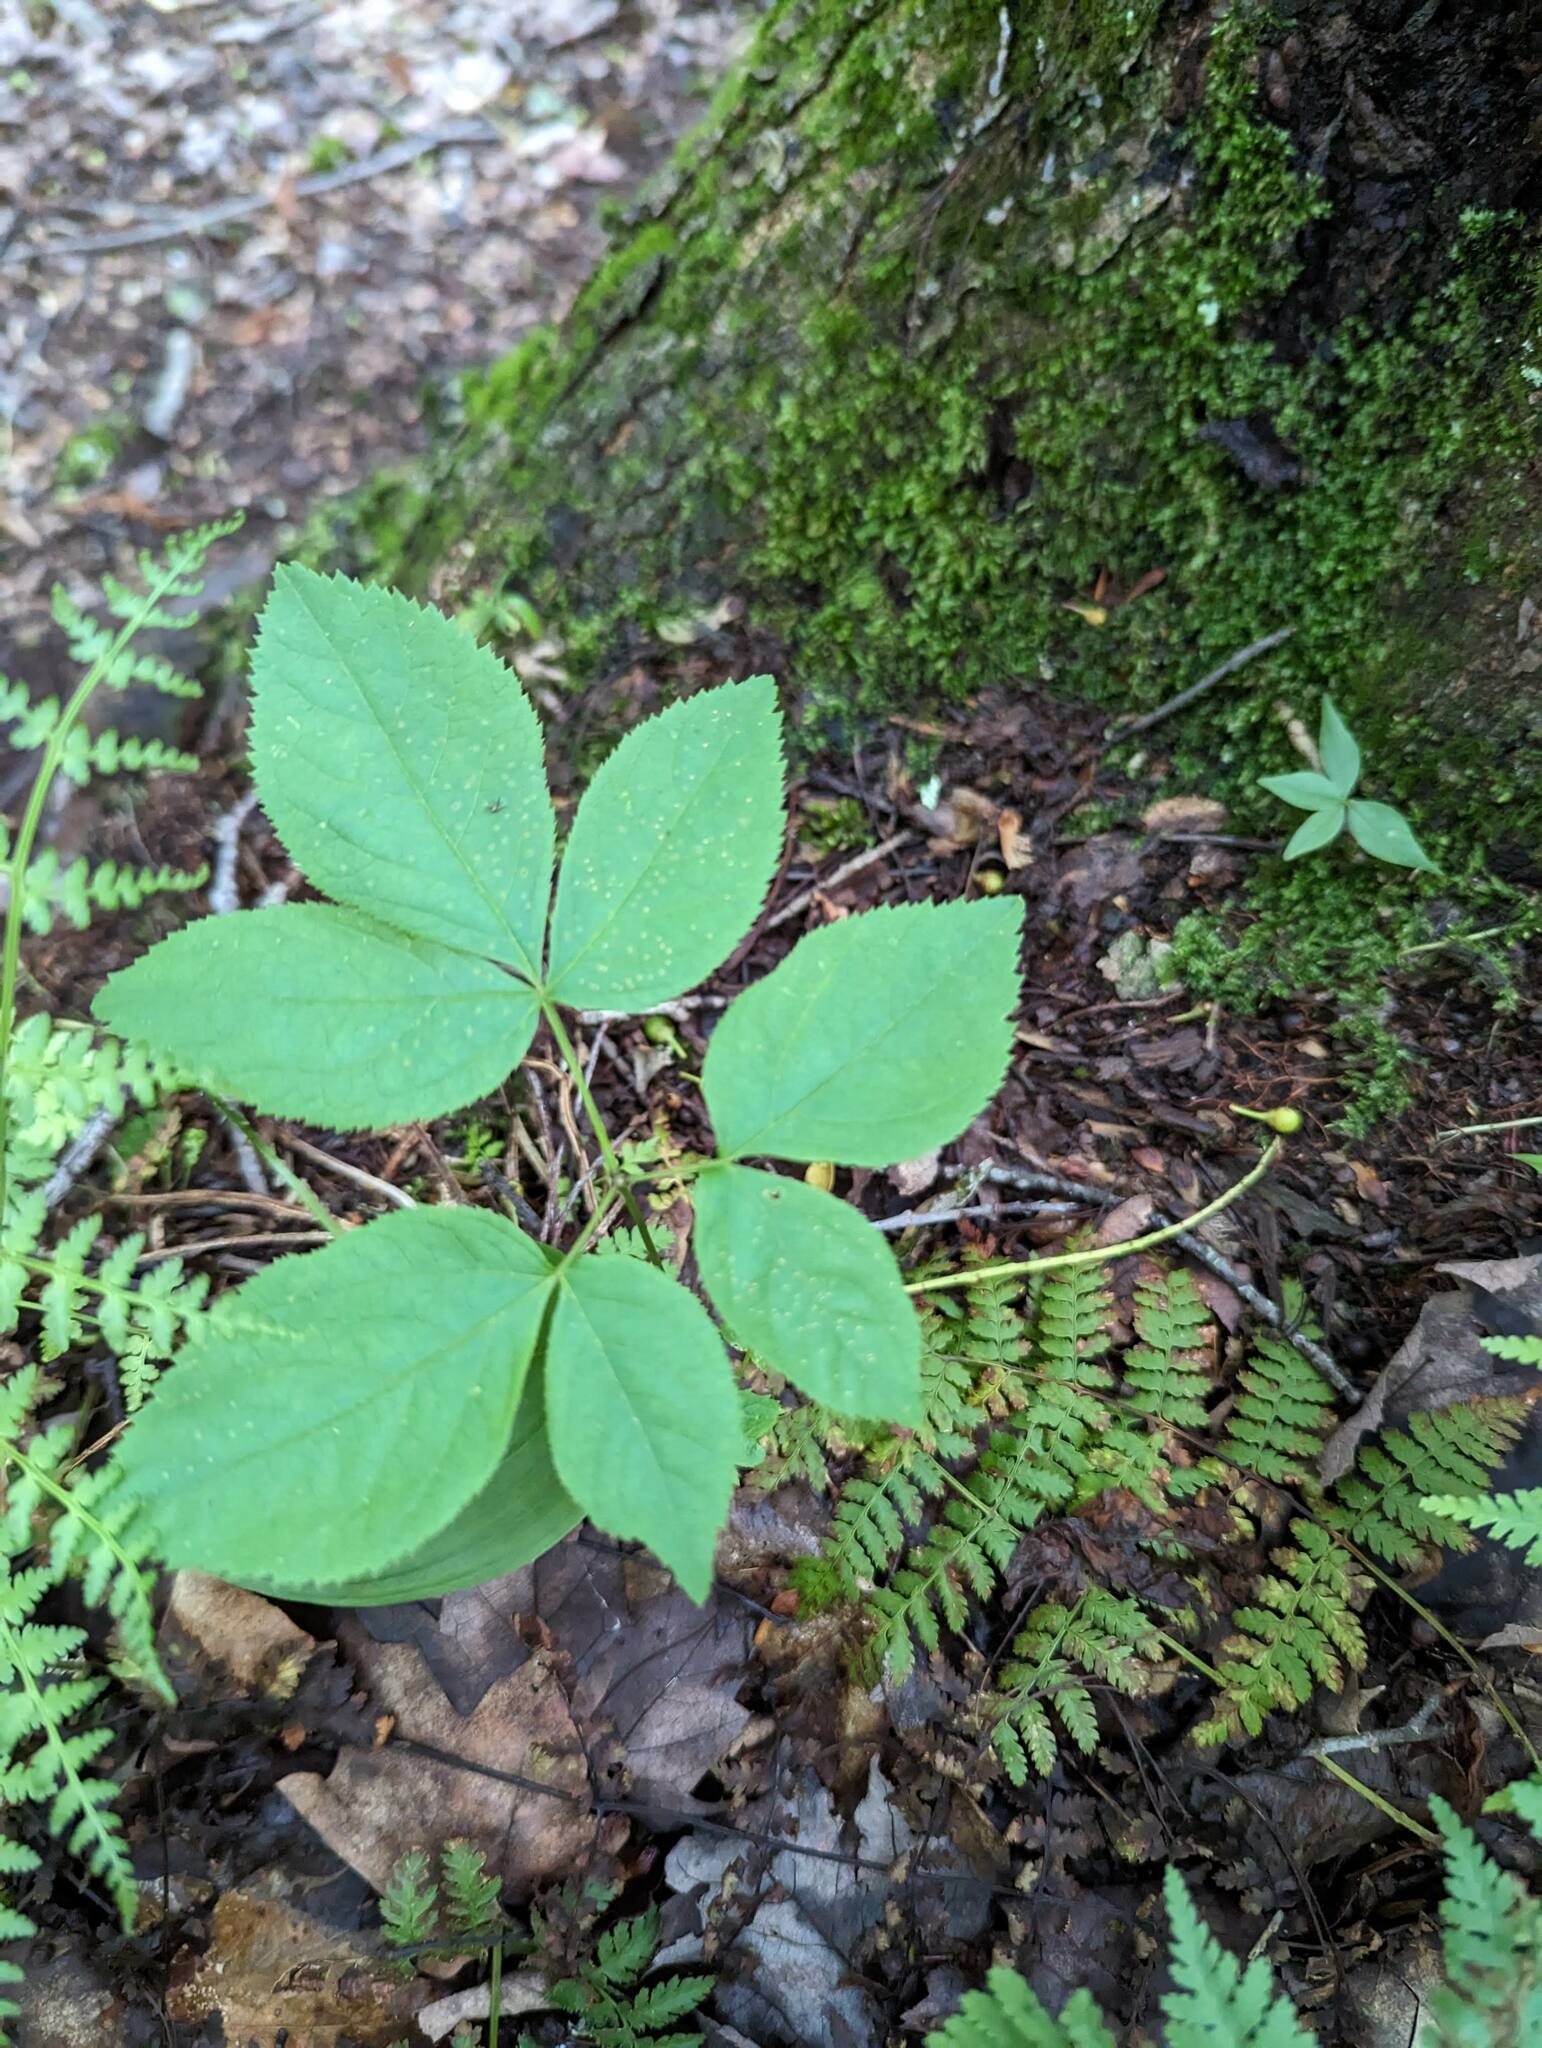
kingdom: Plantae
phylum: Tracheophyta
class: Magnoliopsida
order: Apiales
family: Araliaceae
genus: Aralia
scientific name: Aralia nudicaulis
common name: Wild sarsaparilla
